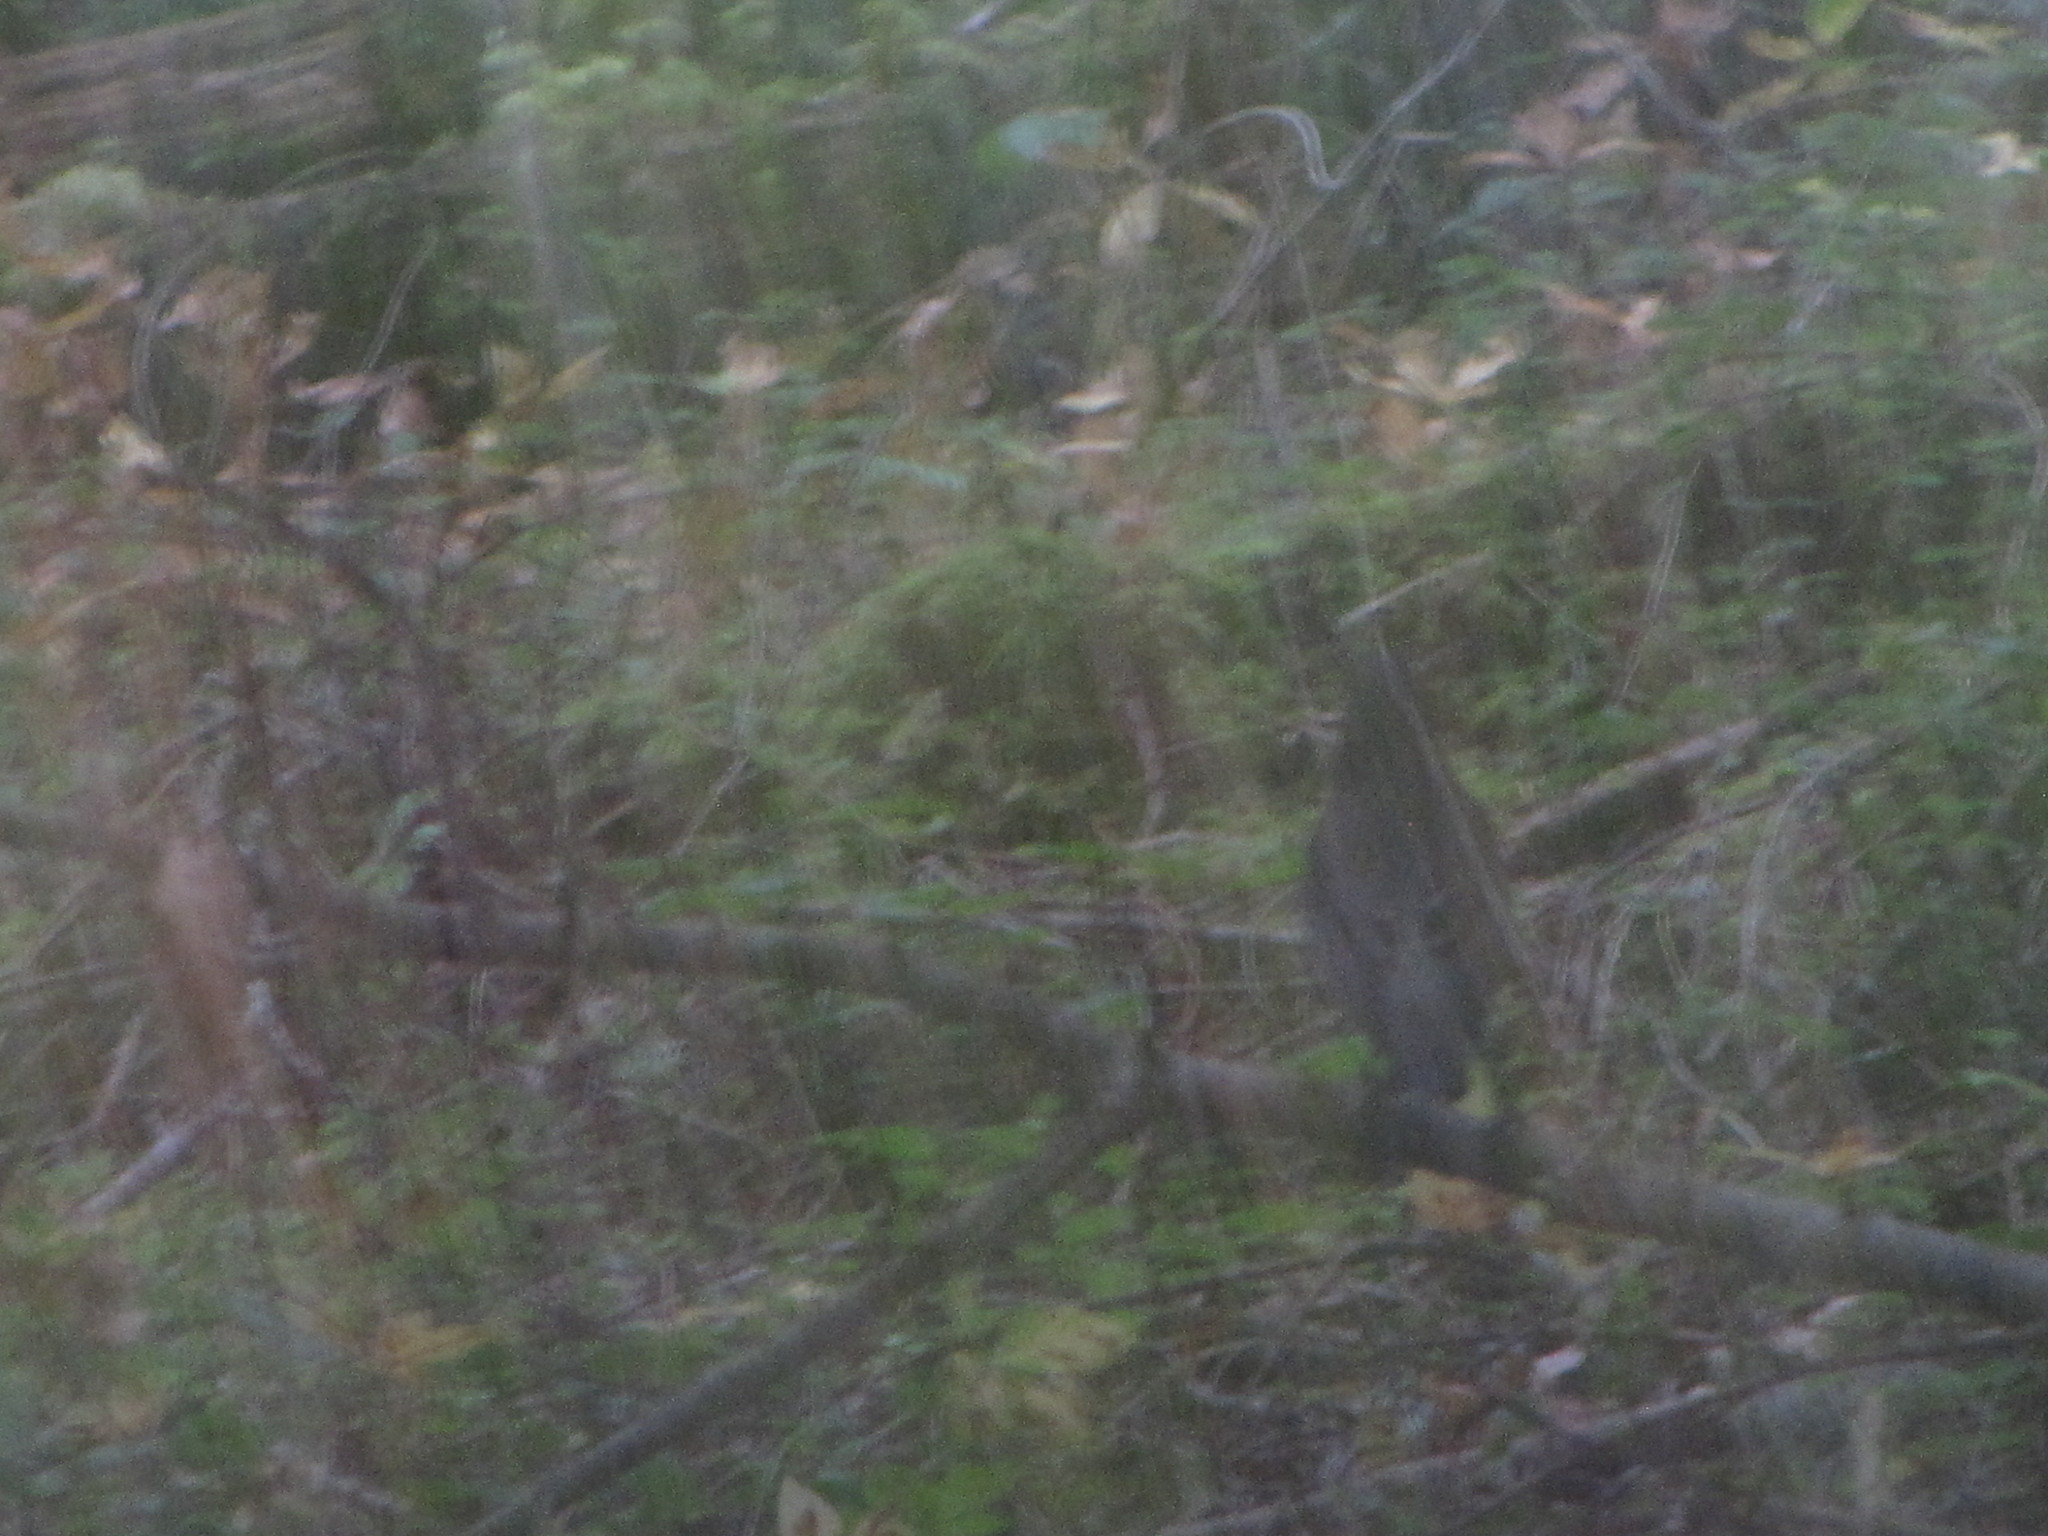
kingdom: Animalia
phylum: Chordata
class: Aves
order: Passeriformes
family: Turdidae
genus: Turdus
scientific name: Turdus migratorius
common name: American robin
